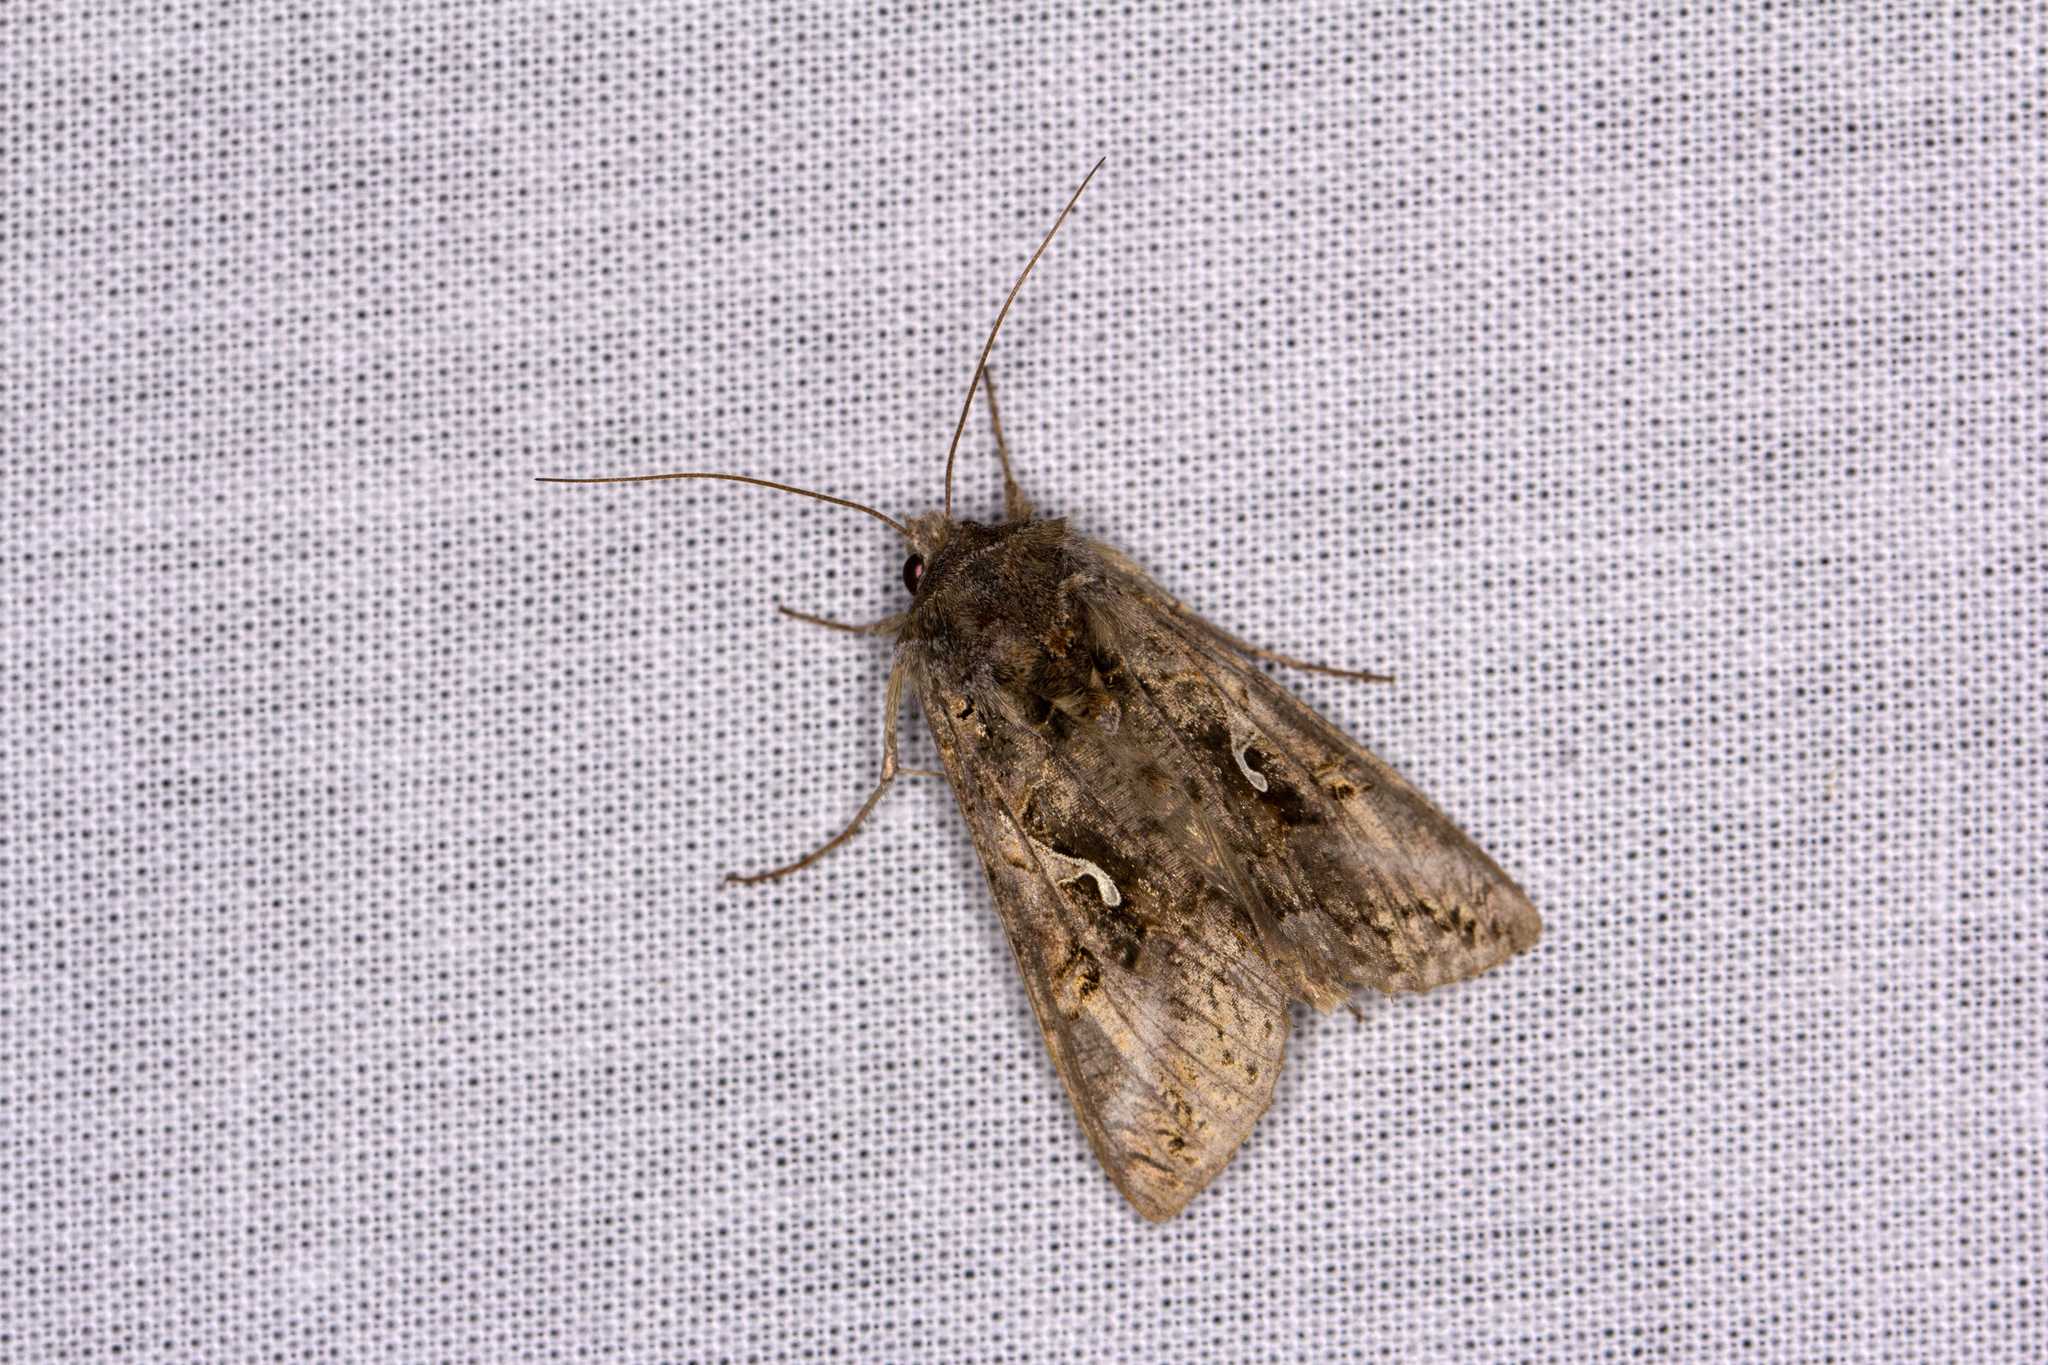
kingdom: Animalia
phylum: Arthropoda
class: Insecta
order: Lepidoptera
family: Noctuidae
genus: Autographa
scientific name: Autographa gamma
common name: Silver y
